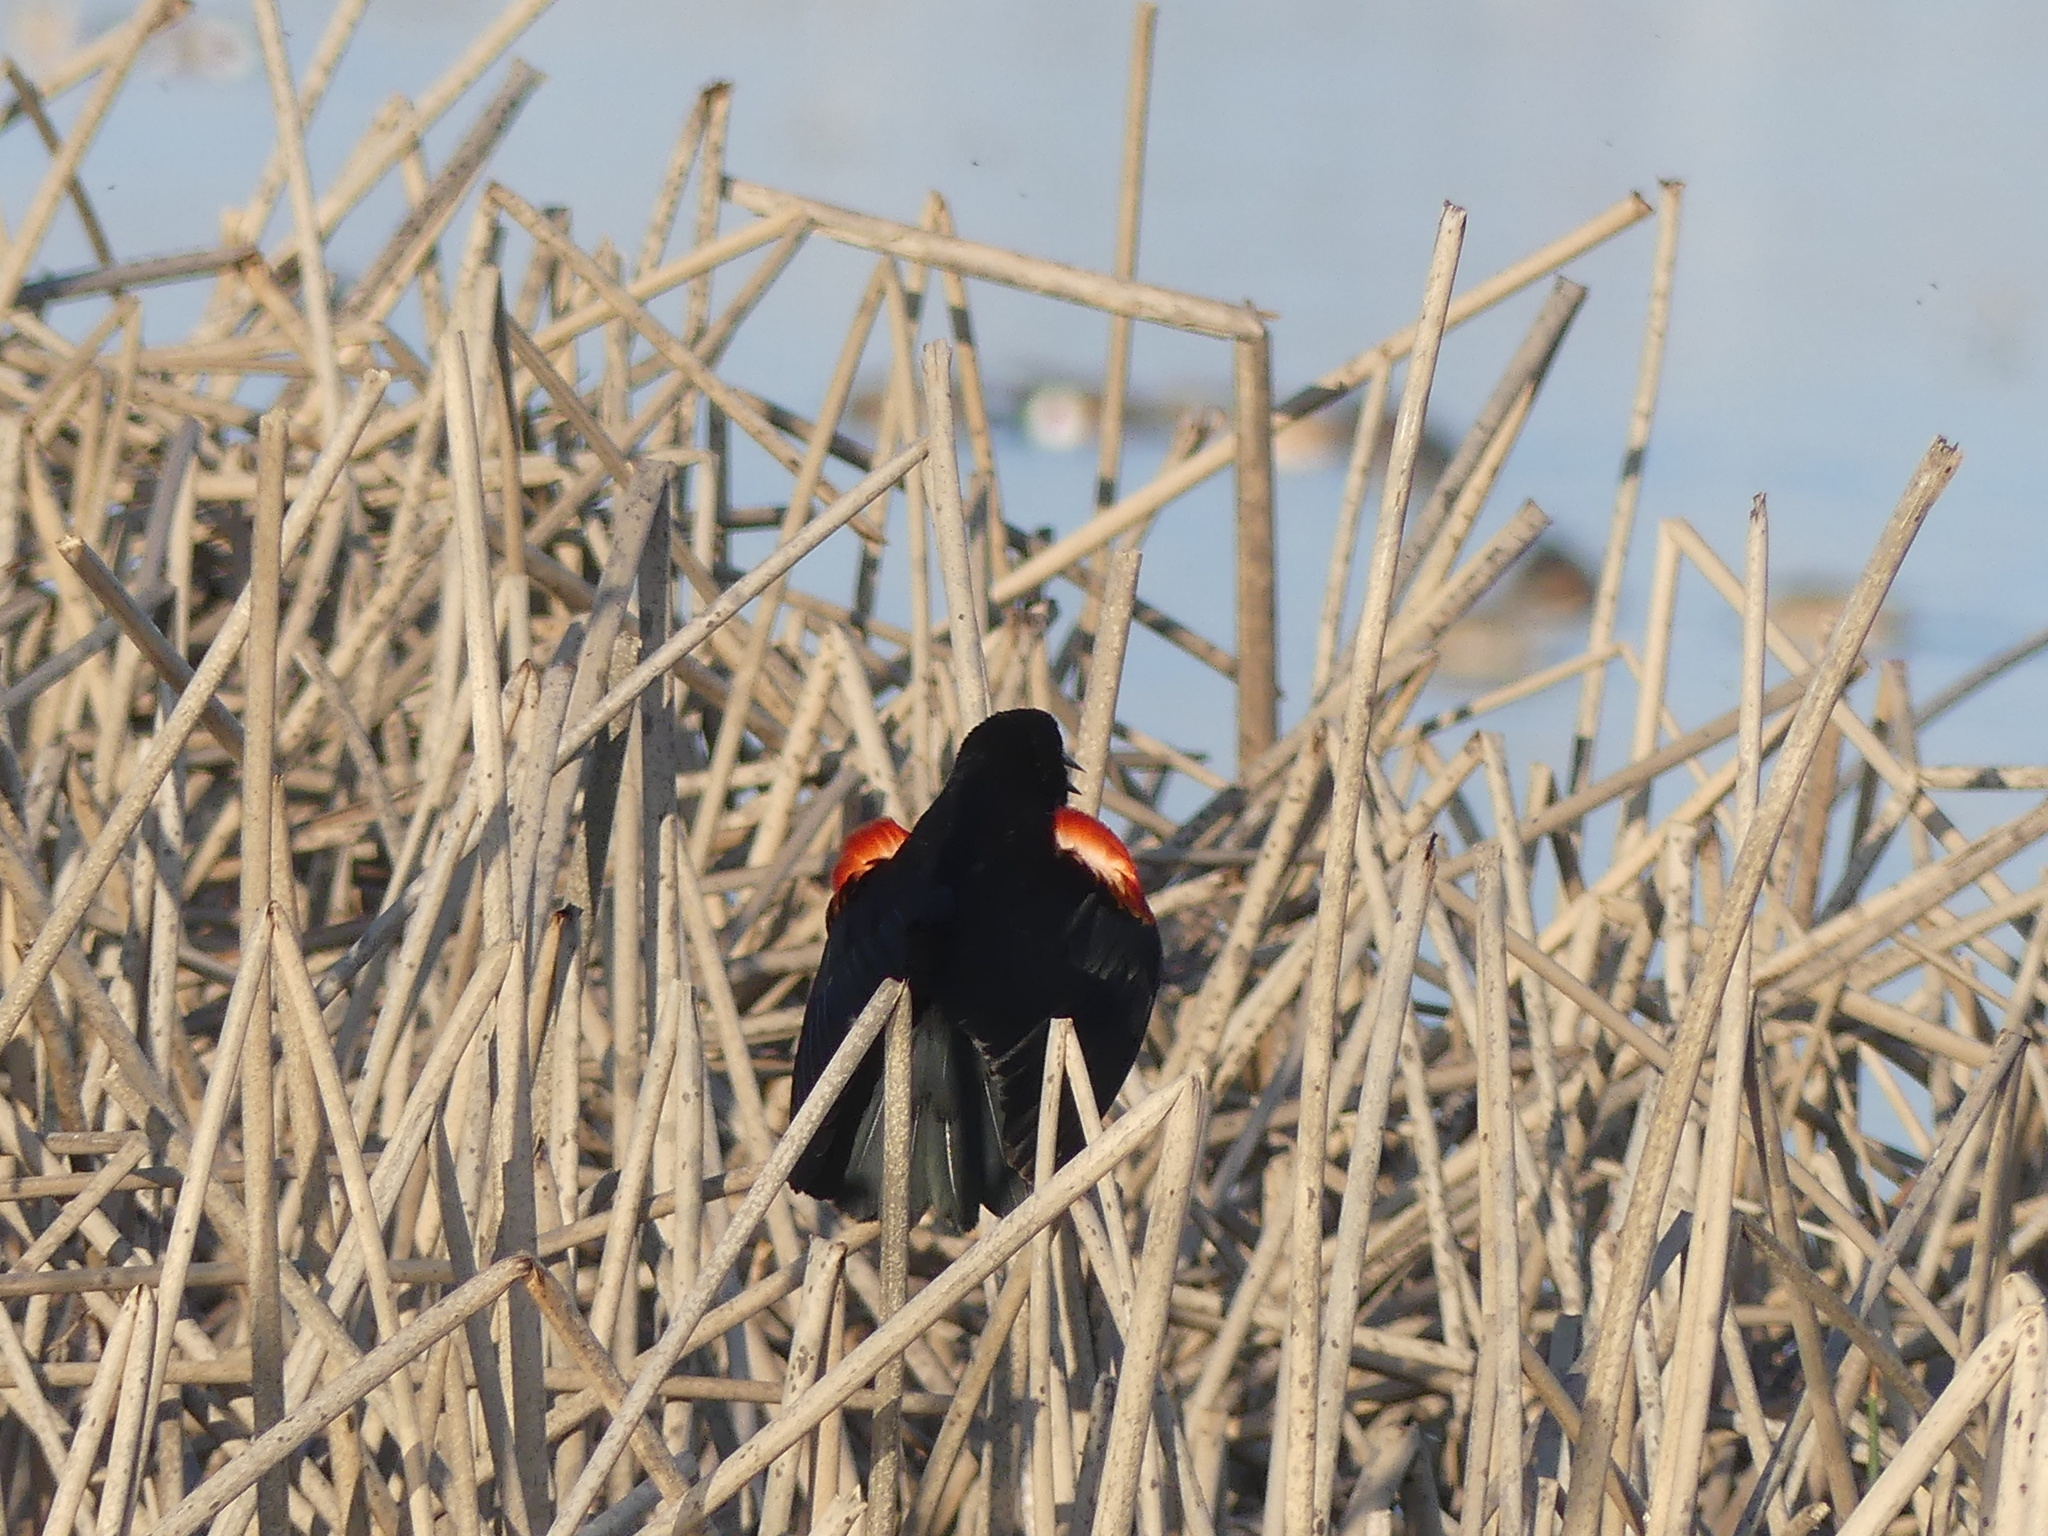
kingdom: Animalia
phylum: Chordata
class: Aves
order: Passeriformes
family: Icteridae
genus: Agelaius
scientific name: Agelaius phoeniceus
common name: Red-winged blackbird
